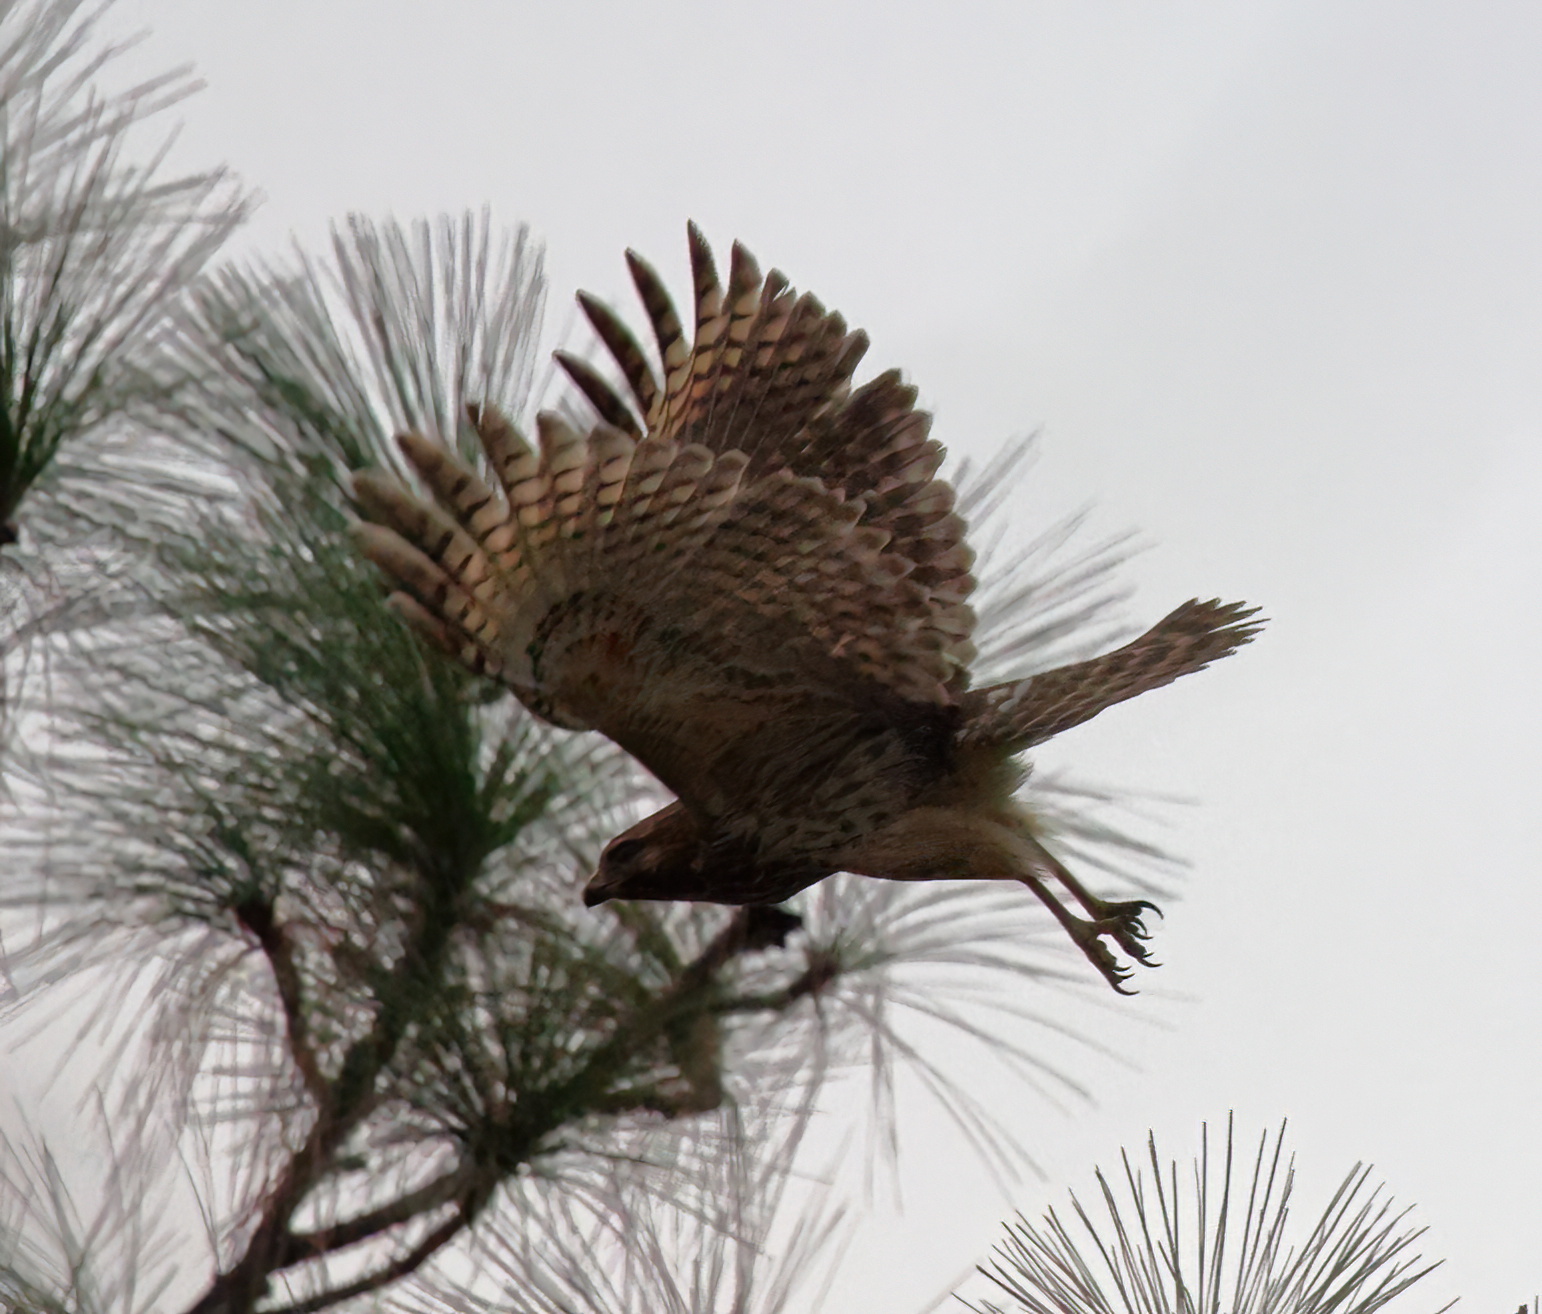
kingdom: Animalia
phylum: Chordata
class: Aves
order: Accipitriformes
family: Accipitridae
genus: Buteo
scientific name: Buteo lineatus
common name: Red-shouldered hawk
